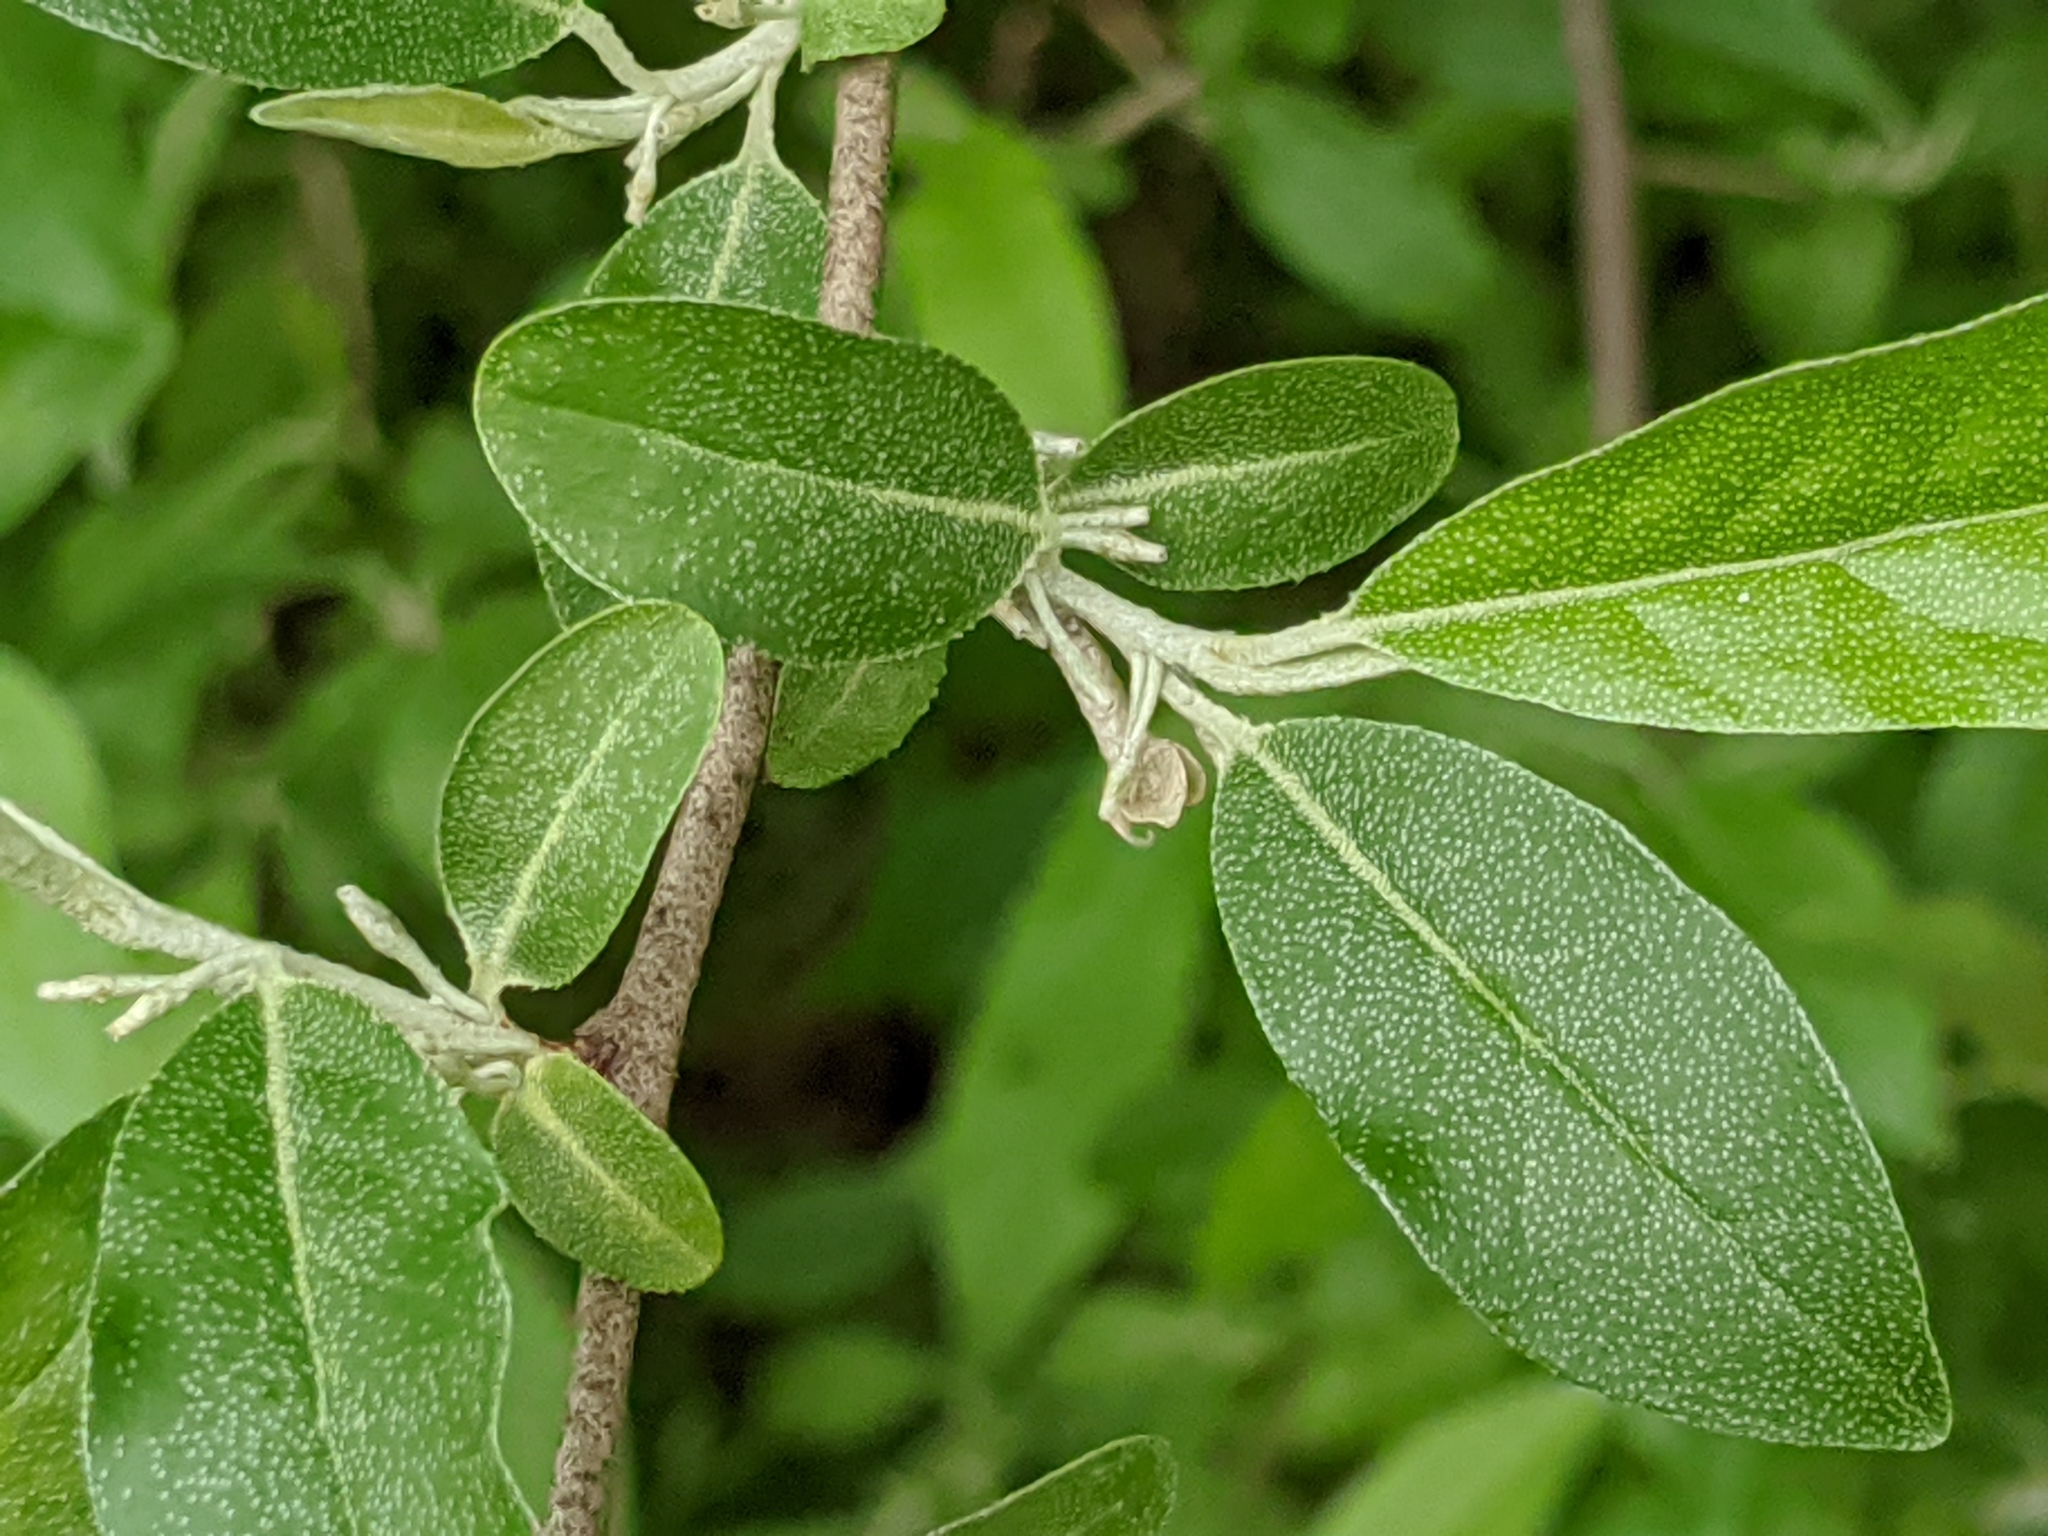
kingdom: Plantae
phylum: Tracheophyta
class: Magnoliopsida
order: Rosales
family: Elaeagnaceae
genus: Elaeagnus
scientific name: Elaeagnus umbellata
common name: Autumn olive
